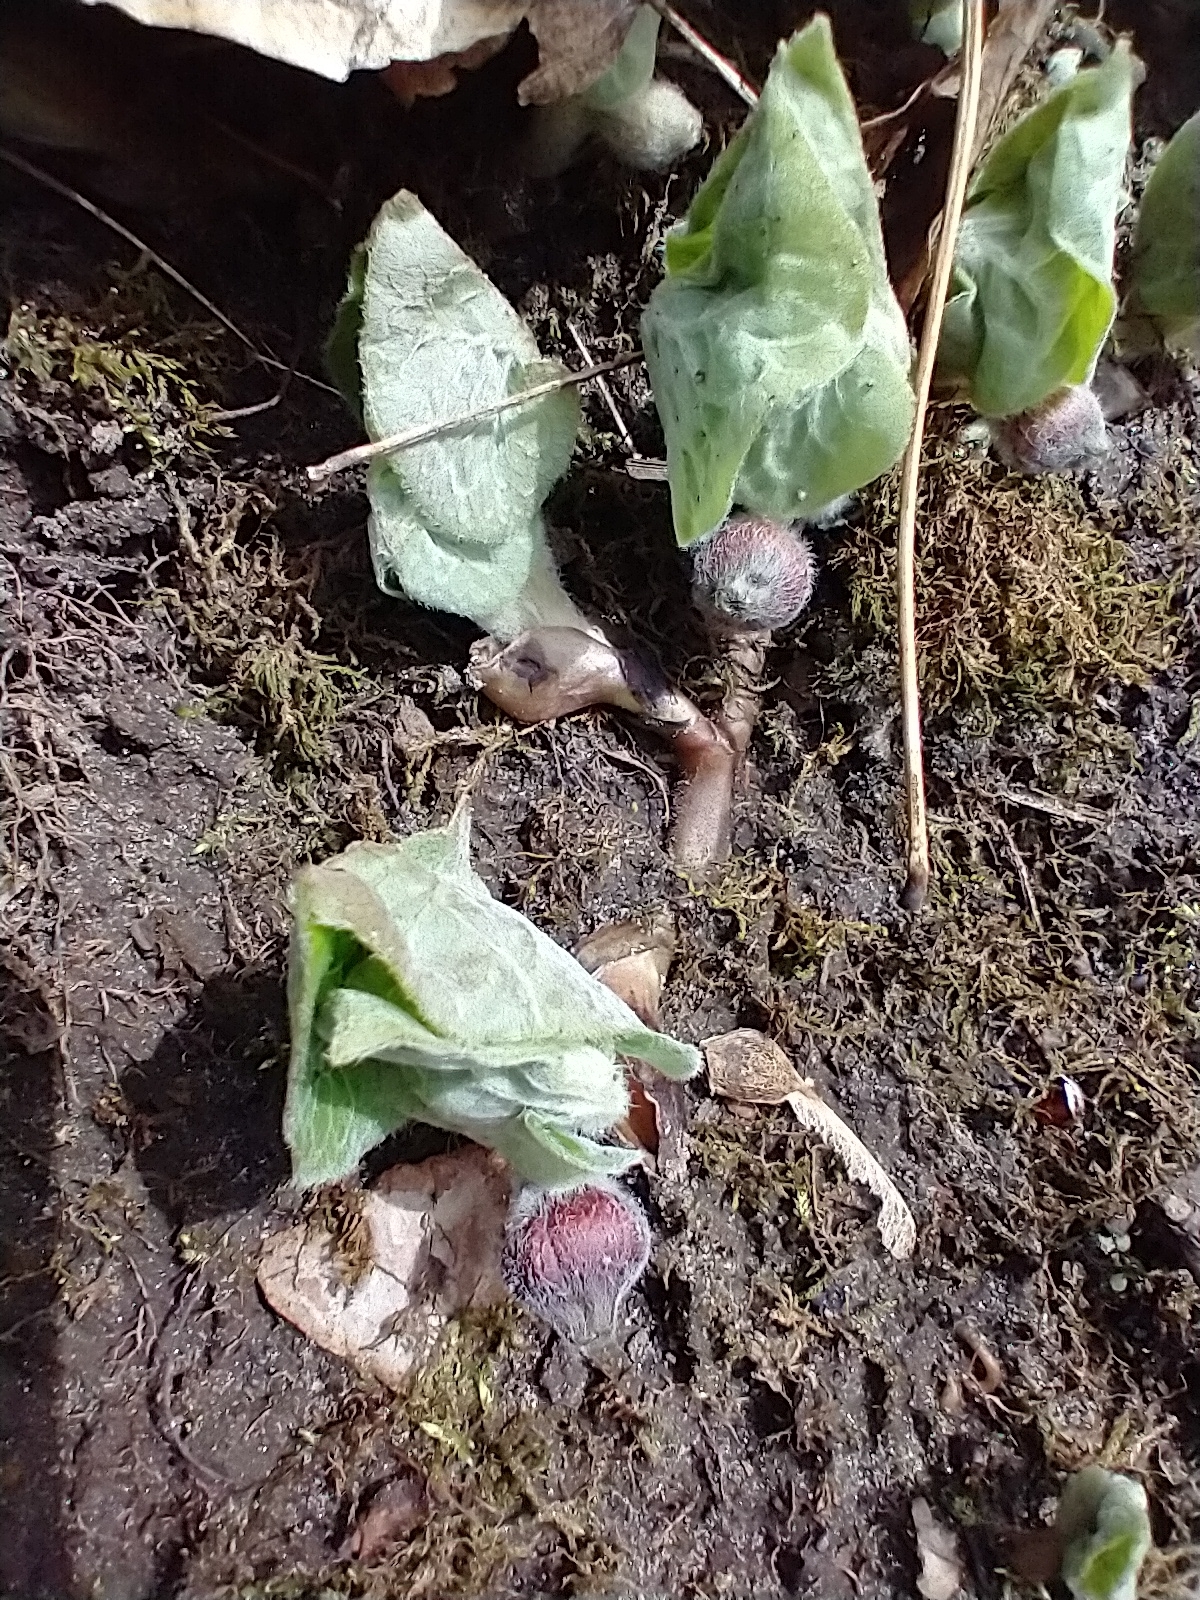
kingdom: Plantae
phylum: Tracheophyta
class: Magnoliopsida
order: Piperales
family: Aristolochiaceae
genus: Asarum
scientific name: Asarum canadense
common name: Wild ginger
